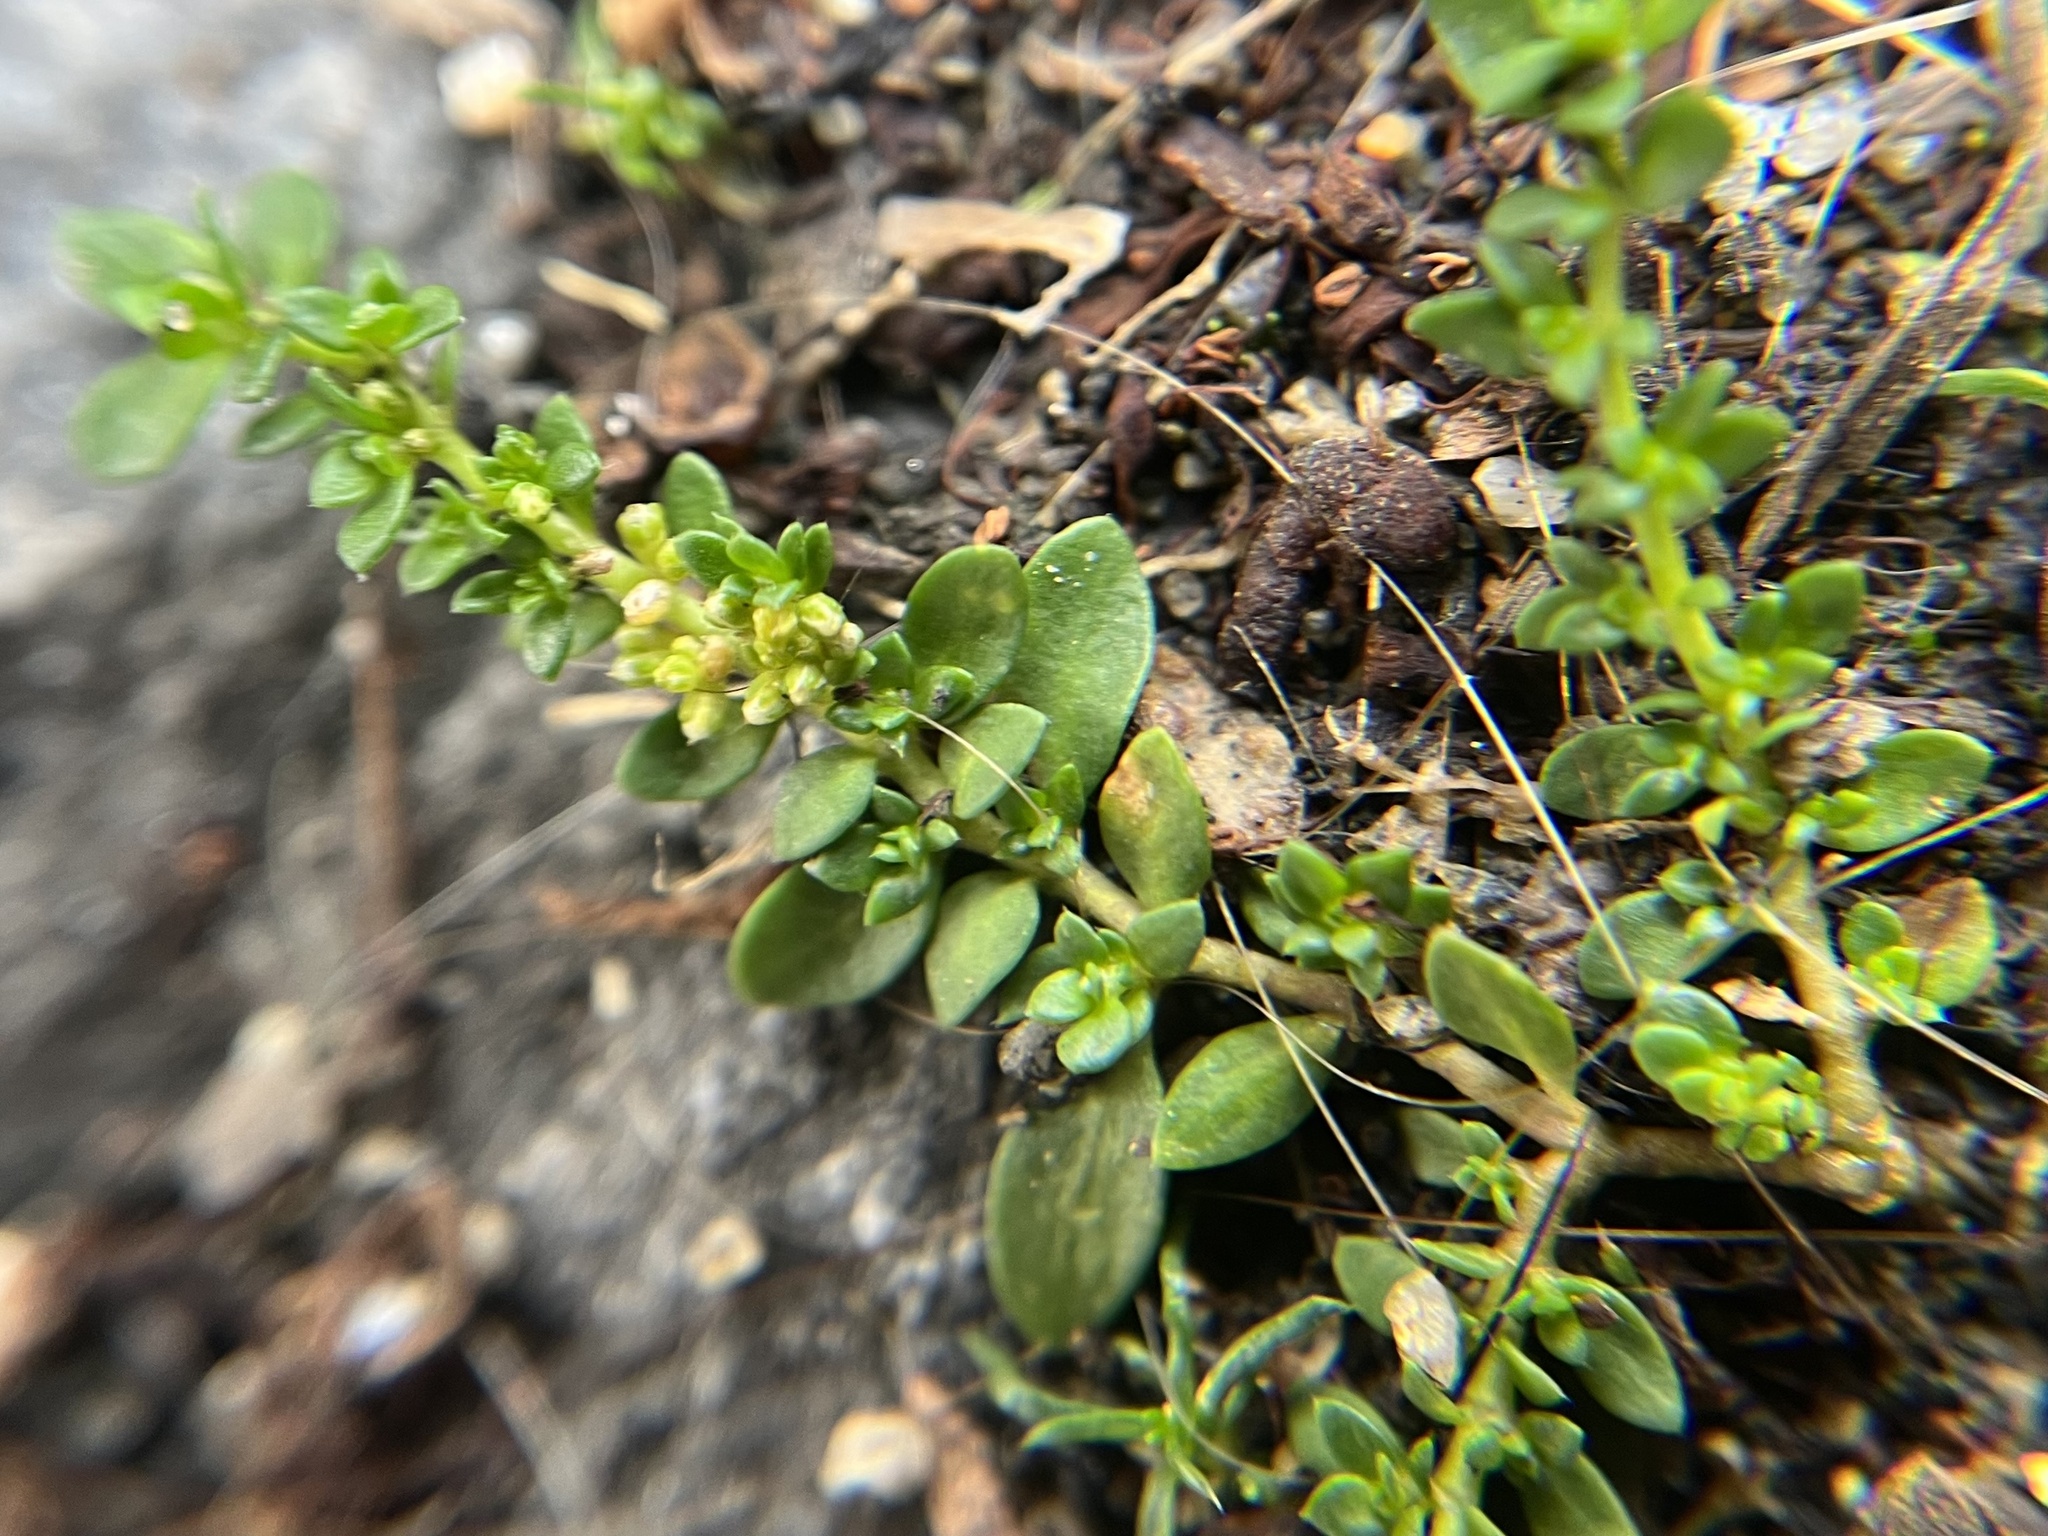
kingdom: Plantae
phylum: Tracheophyta
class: Magnoliopsida
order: Caryophyllales
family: Caryophyllaceae
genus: Herniaria
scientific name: Herniaria glabra
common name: Smooth rupturewort
